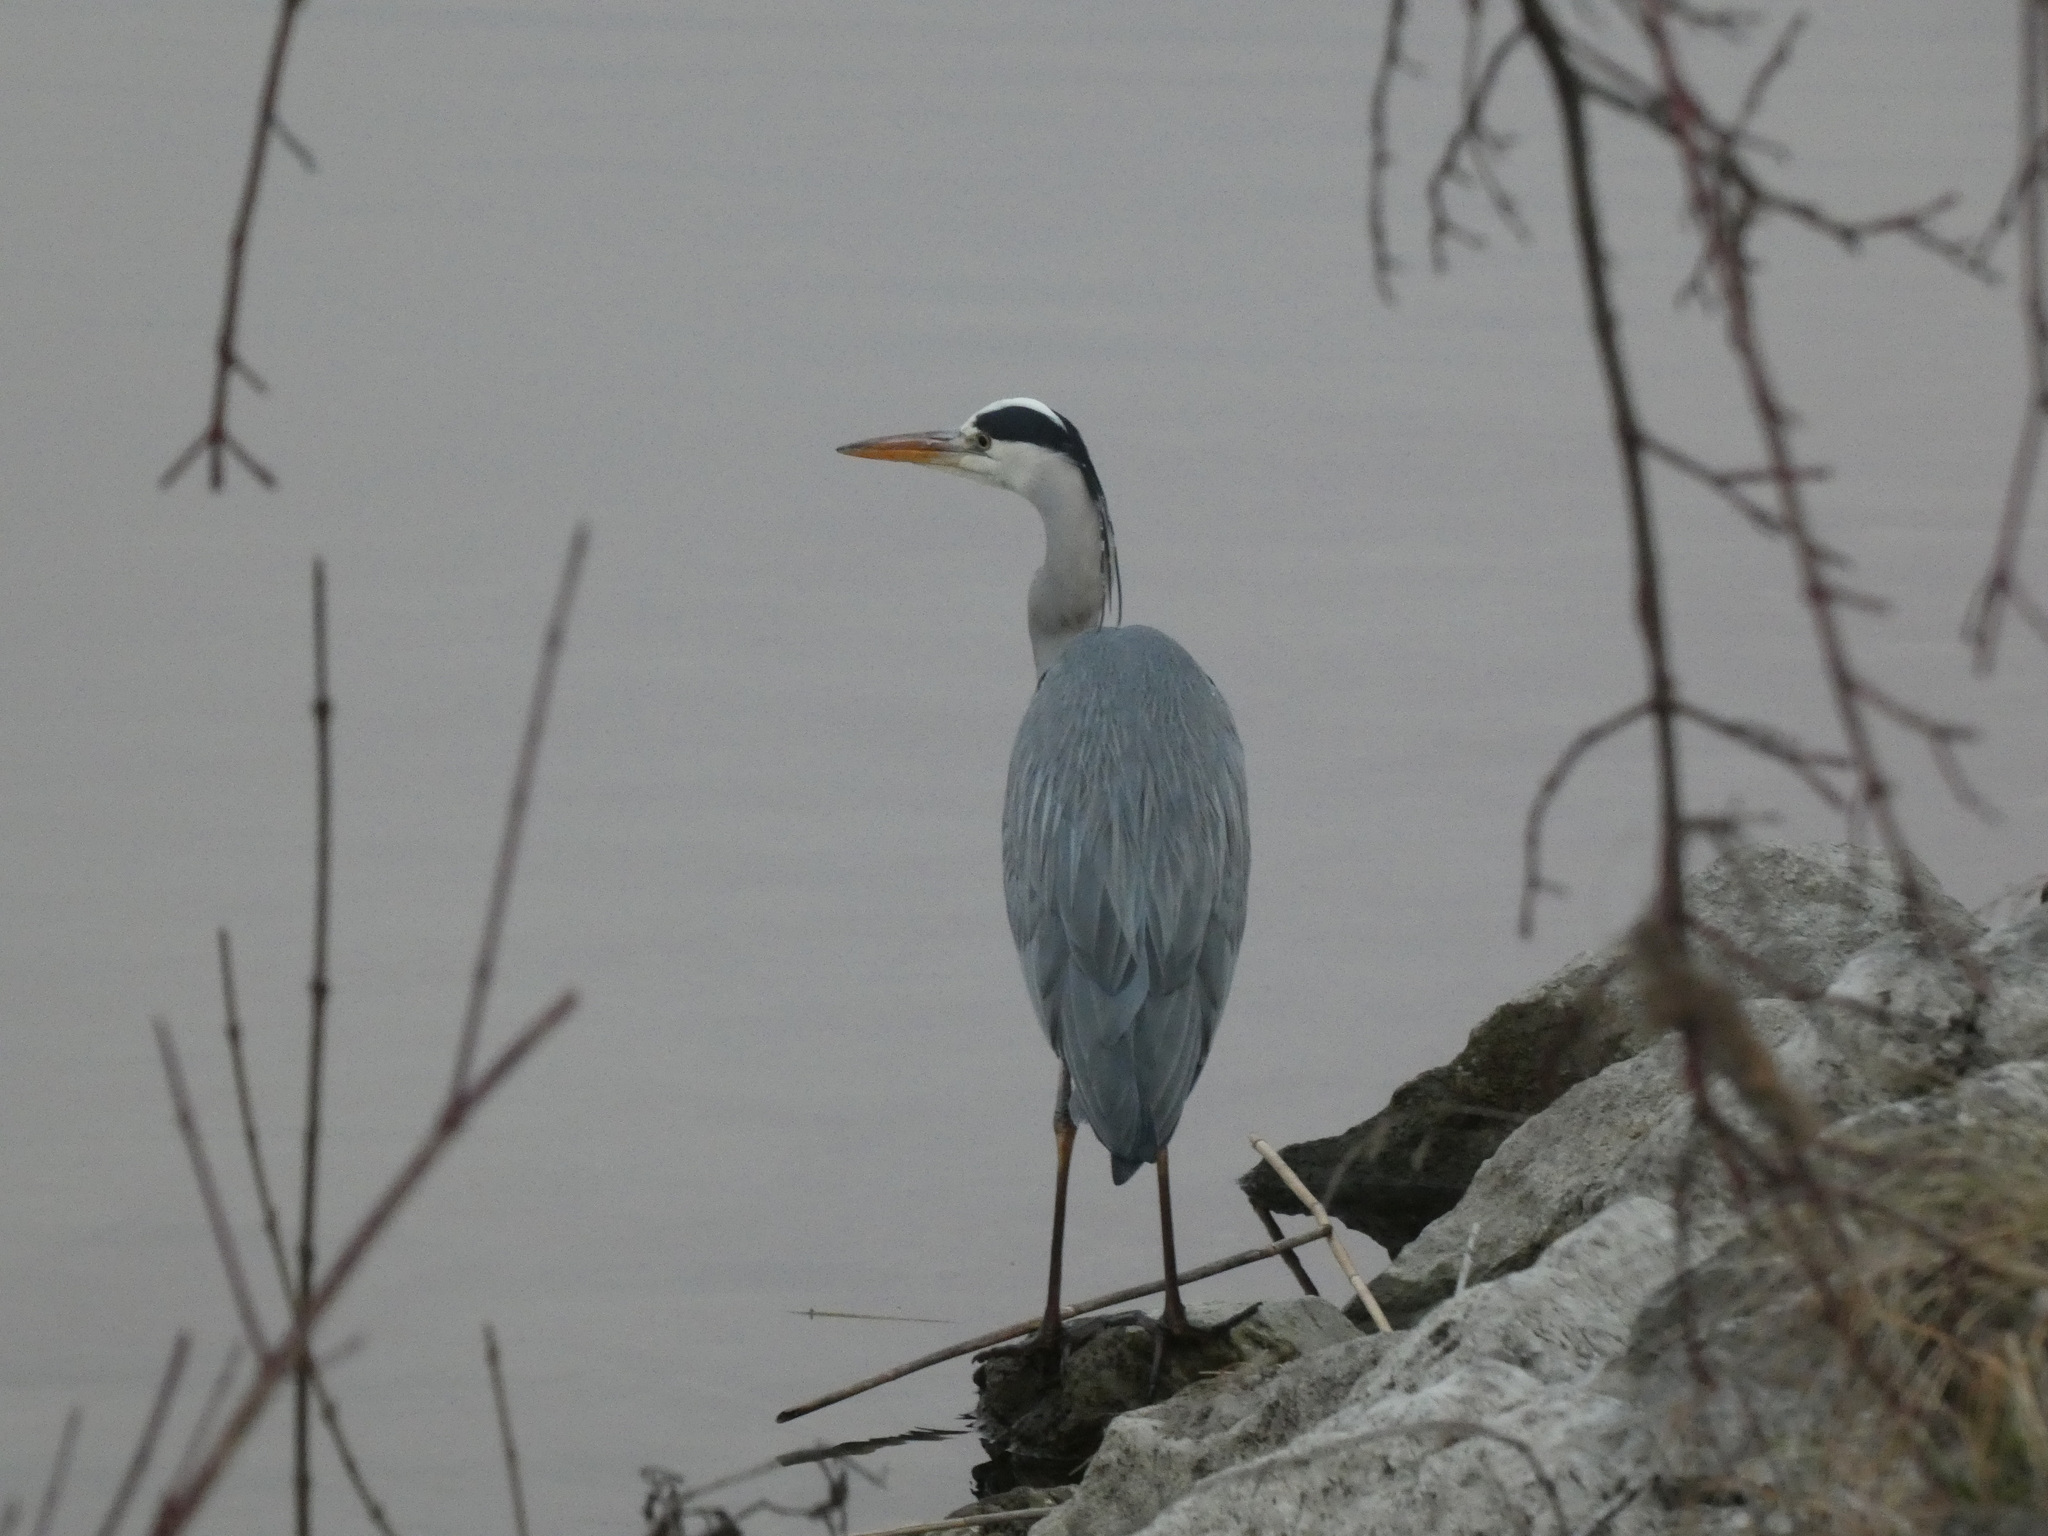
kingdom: Animalia
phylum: Chordata
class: Aves
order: Pelecaniformes
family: Ardeidae
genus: Ardea
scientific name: Ardea cinerea
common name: Grey heron
